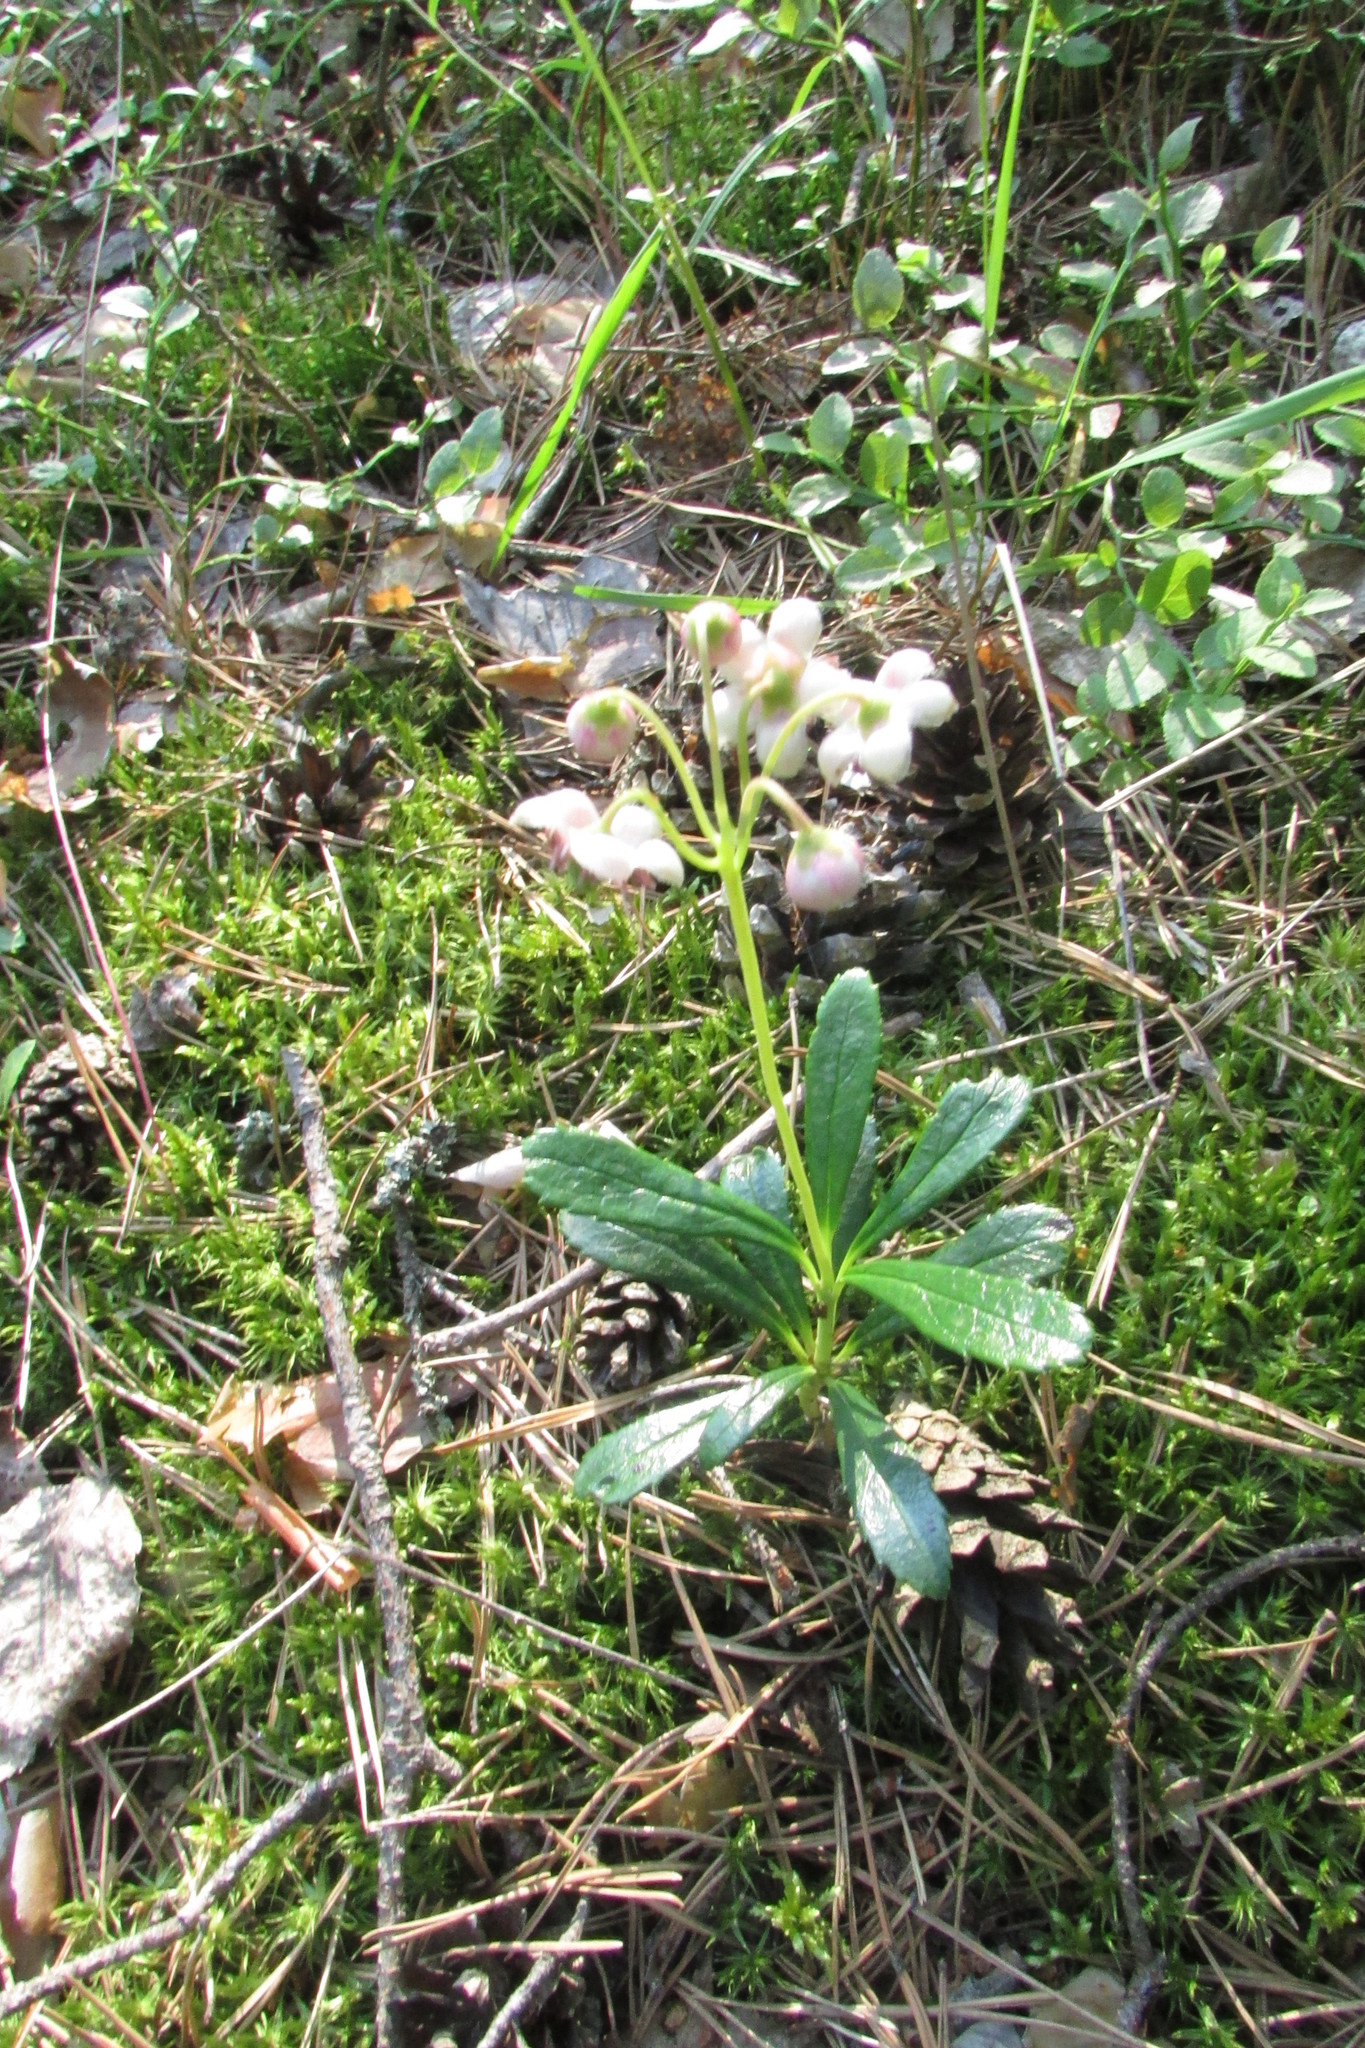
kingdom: Plantae
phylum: Tracheophyta
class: Magnoliopsida
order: Ericales
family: Ericaceae
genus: Chimaphila
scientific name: Chimaphila umbellata
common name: Pipsissewa
